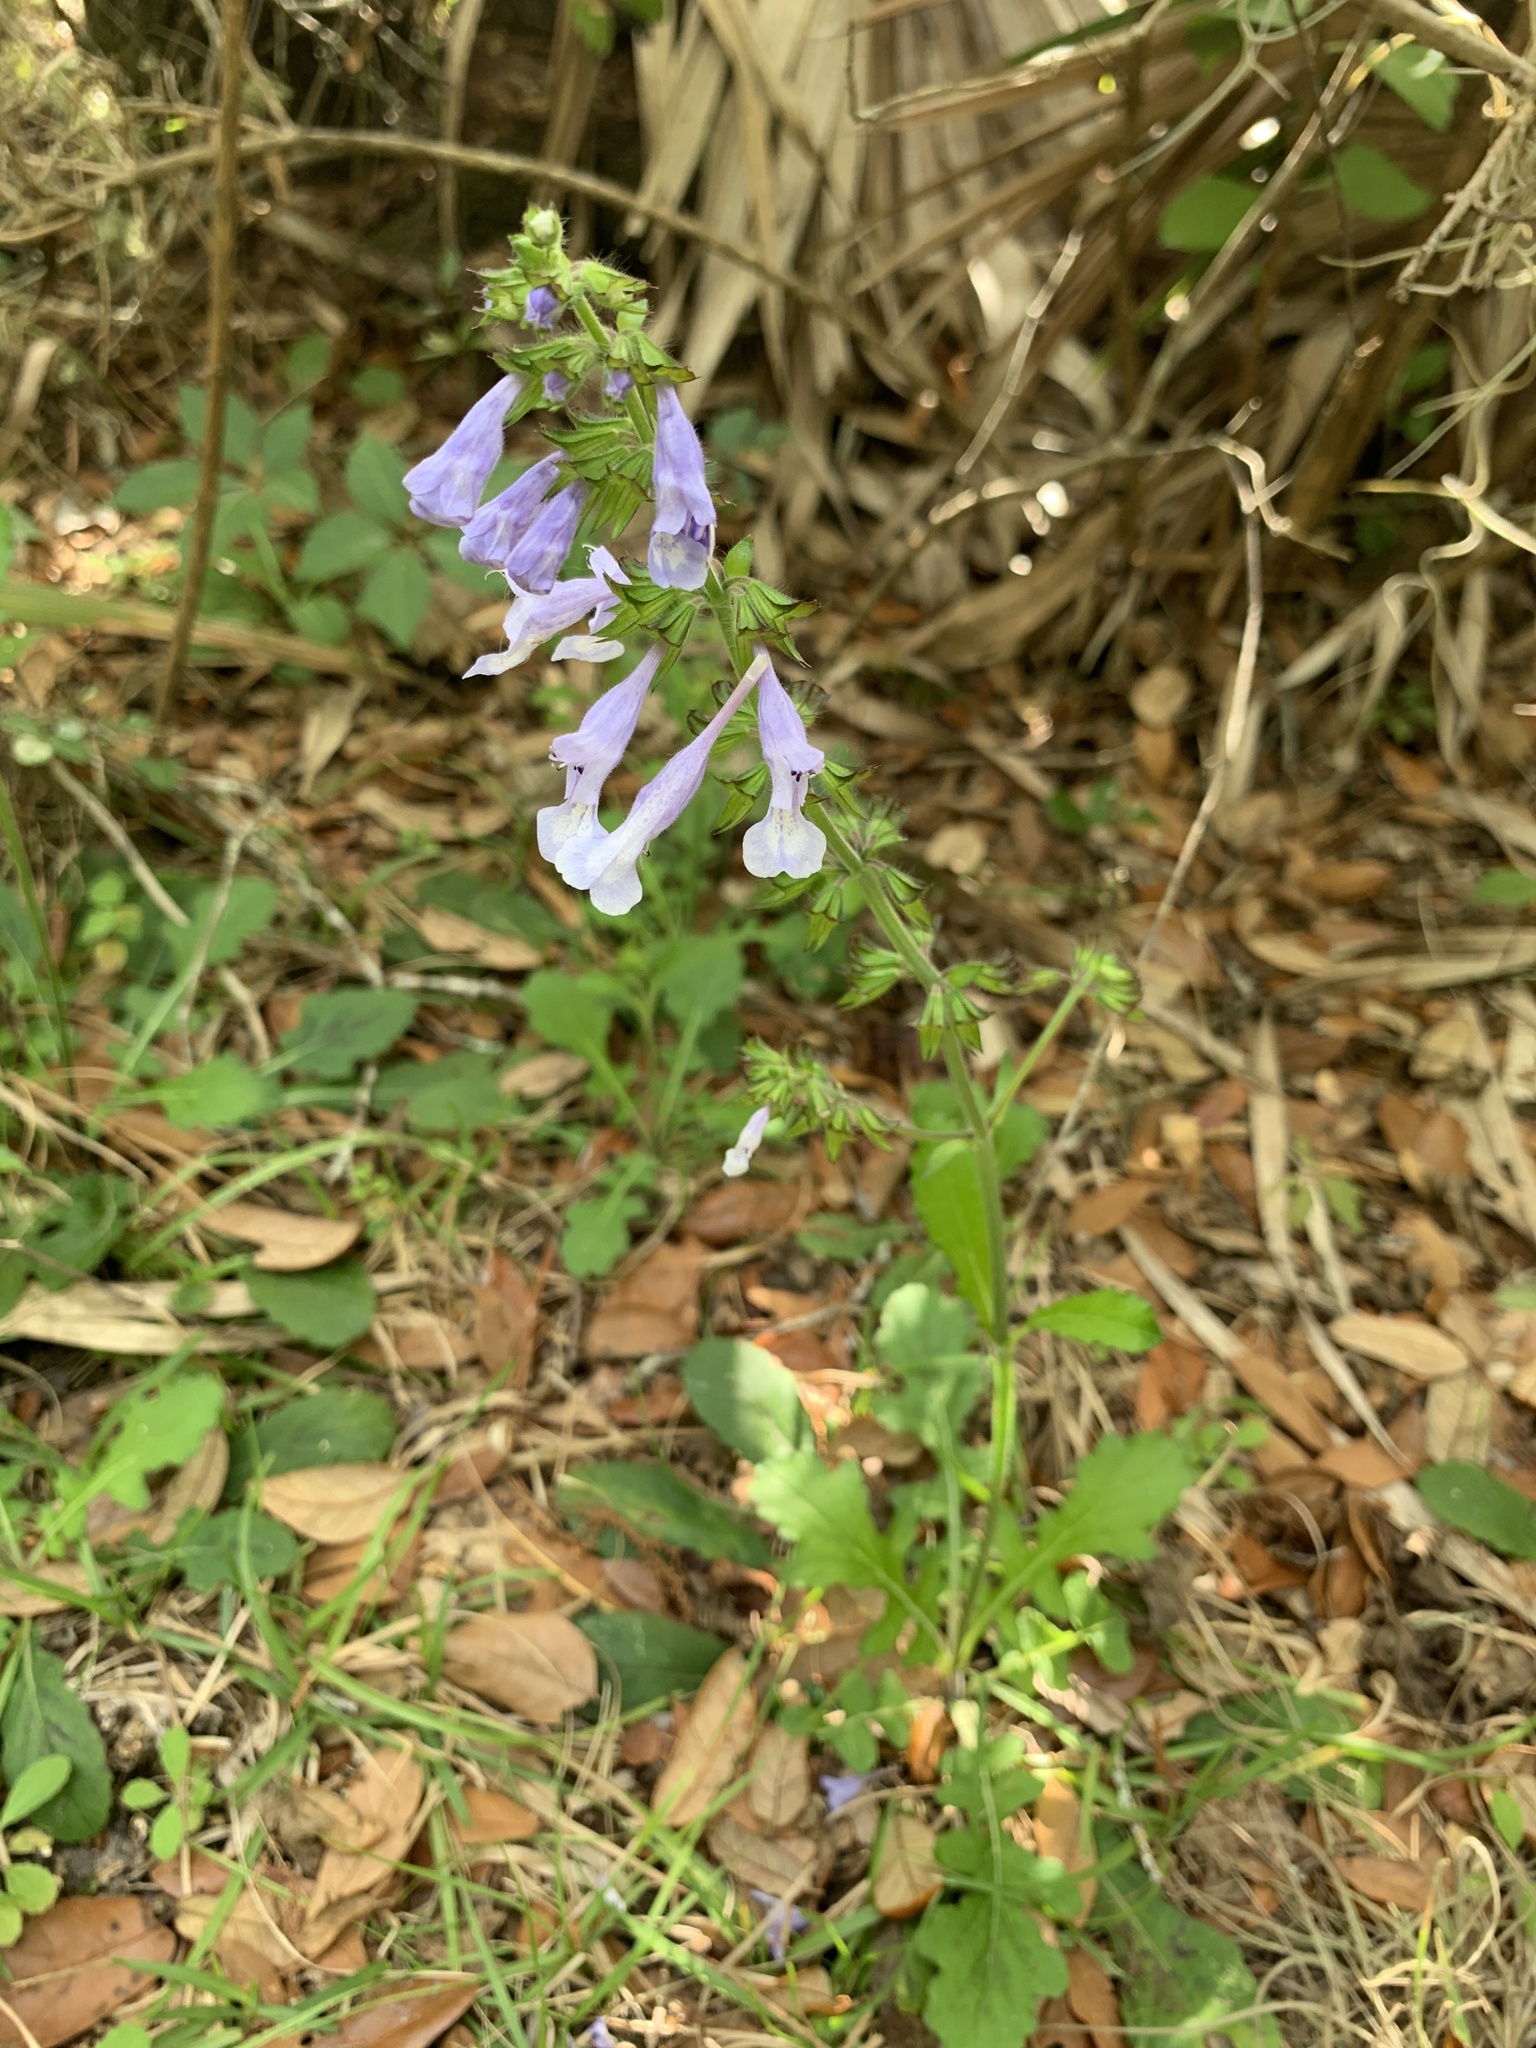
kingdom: Plantae
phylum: Tracheophyta
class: Magnoliopsida
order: Lamiales
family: Lamiaceae
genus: Salvia
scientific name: Salvia lyrata
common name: Cancerweed
